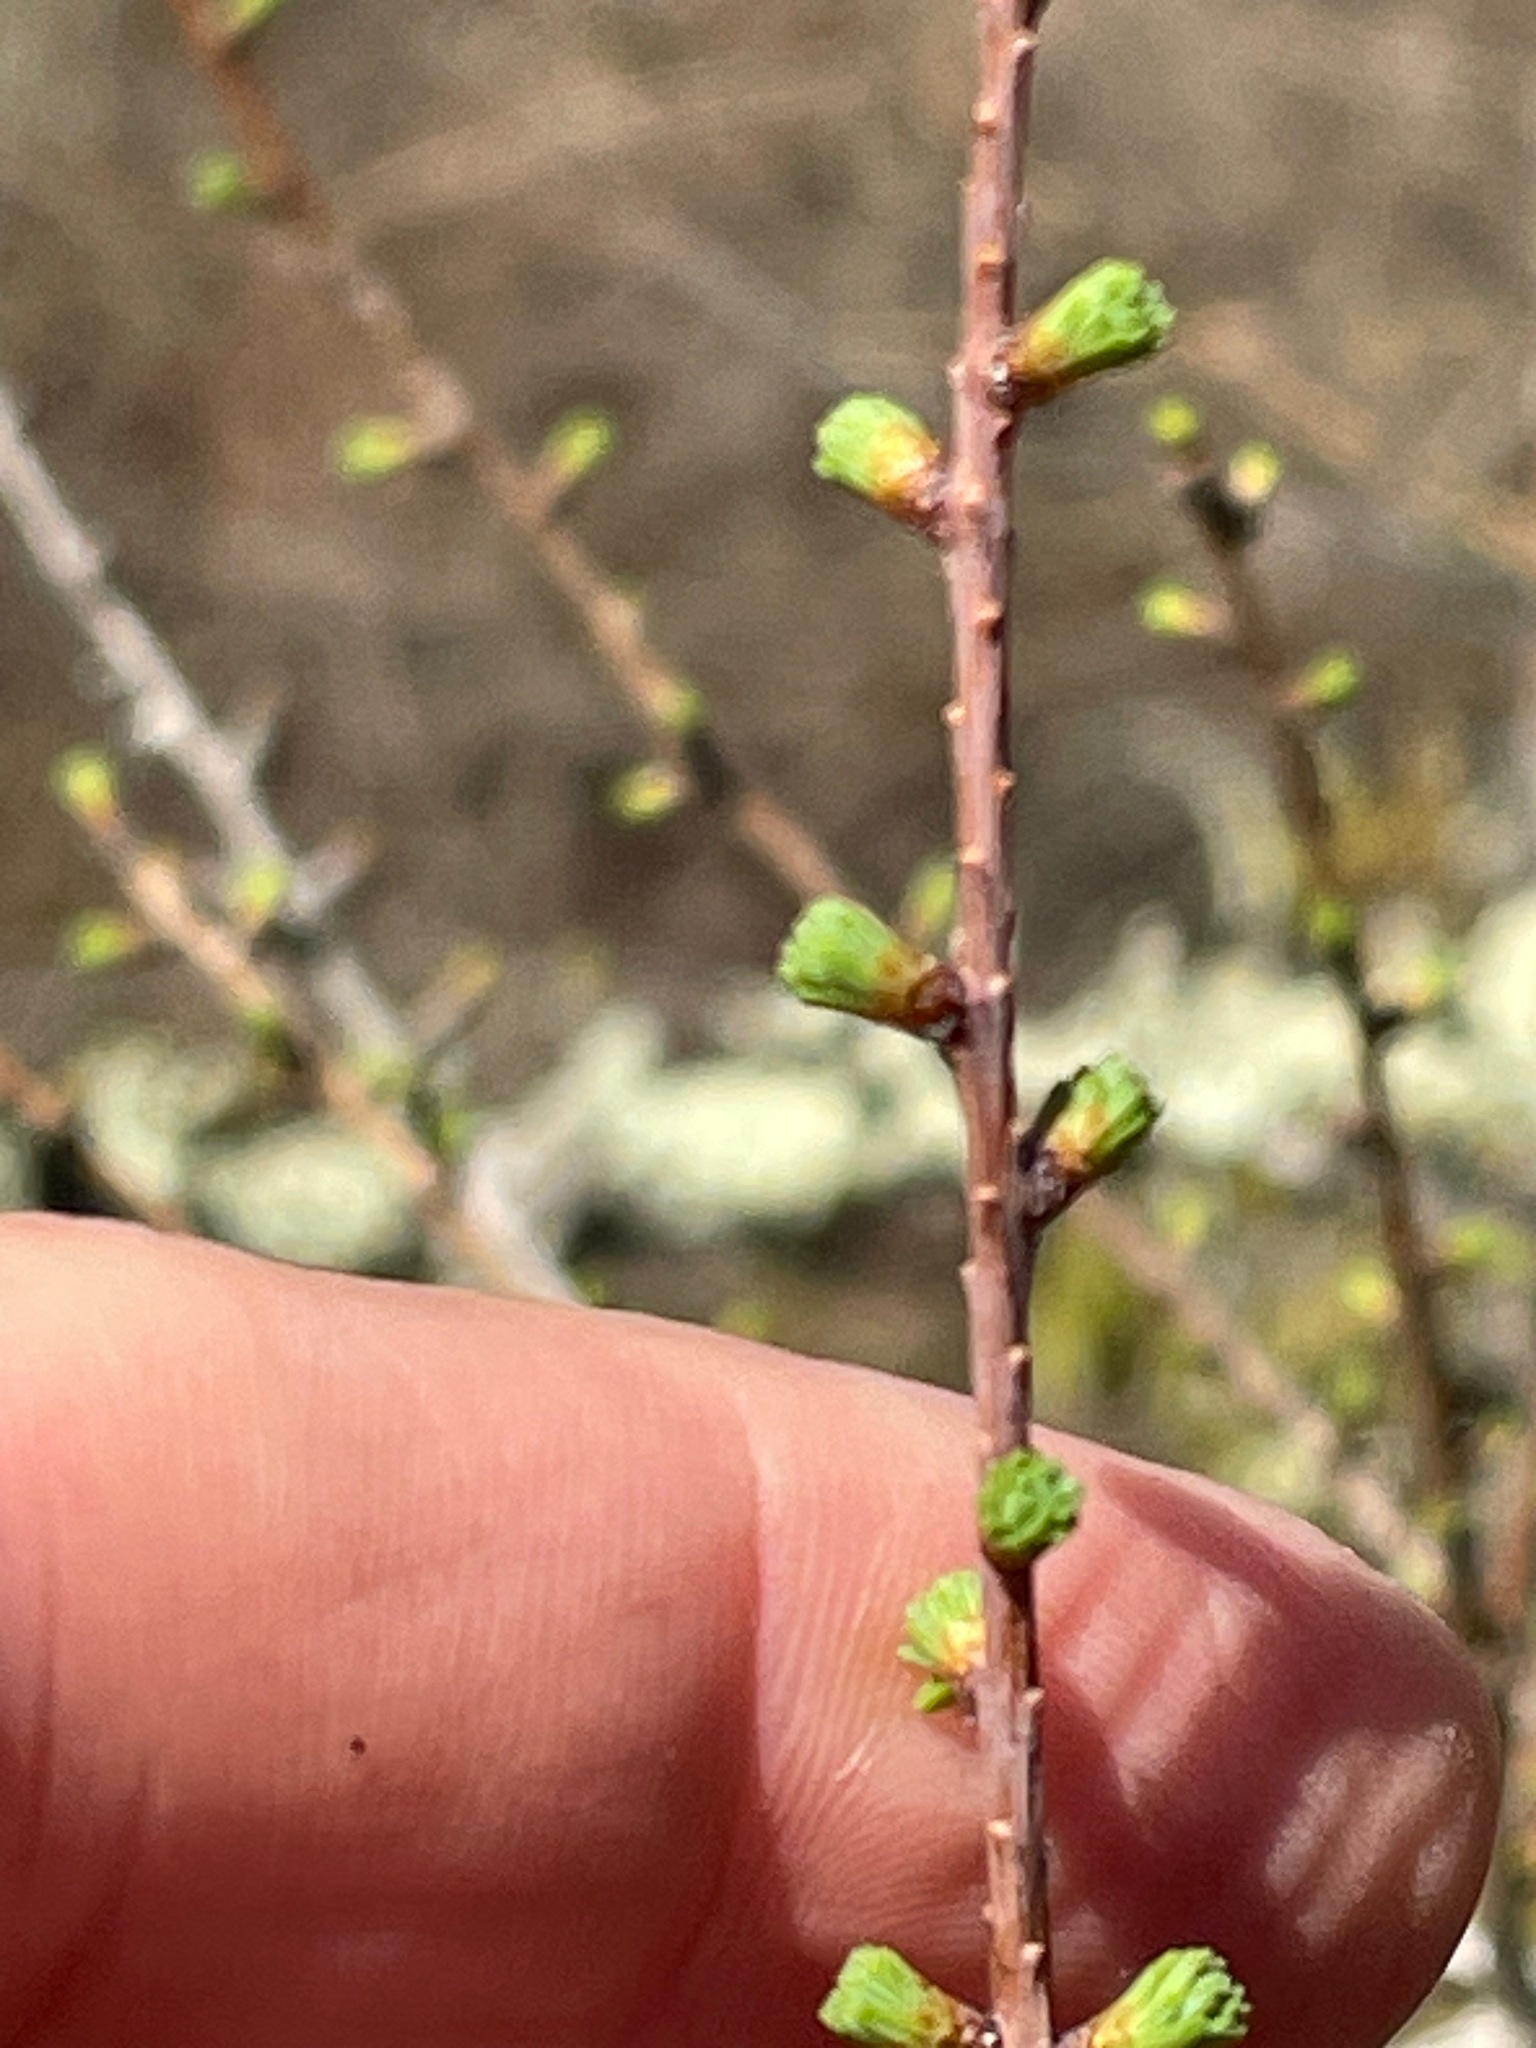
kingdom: Plantae
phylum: Tracheophyta
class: Pinopsida
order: Pinales
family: Pinaceae
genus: Larix
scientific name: Larix laricina
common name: American larch
